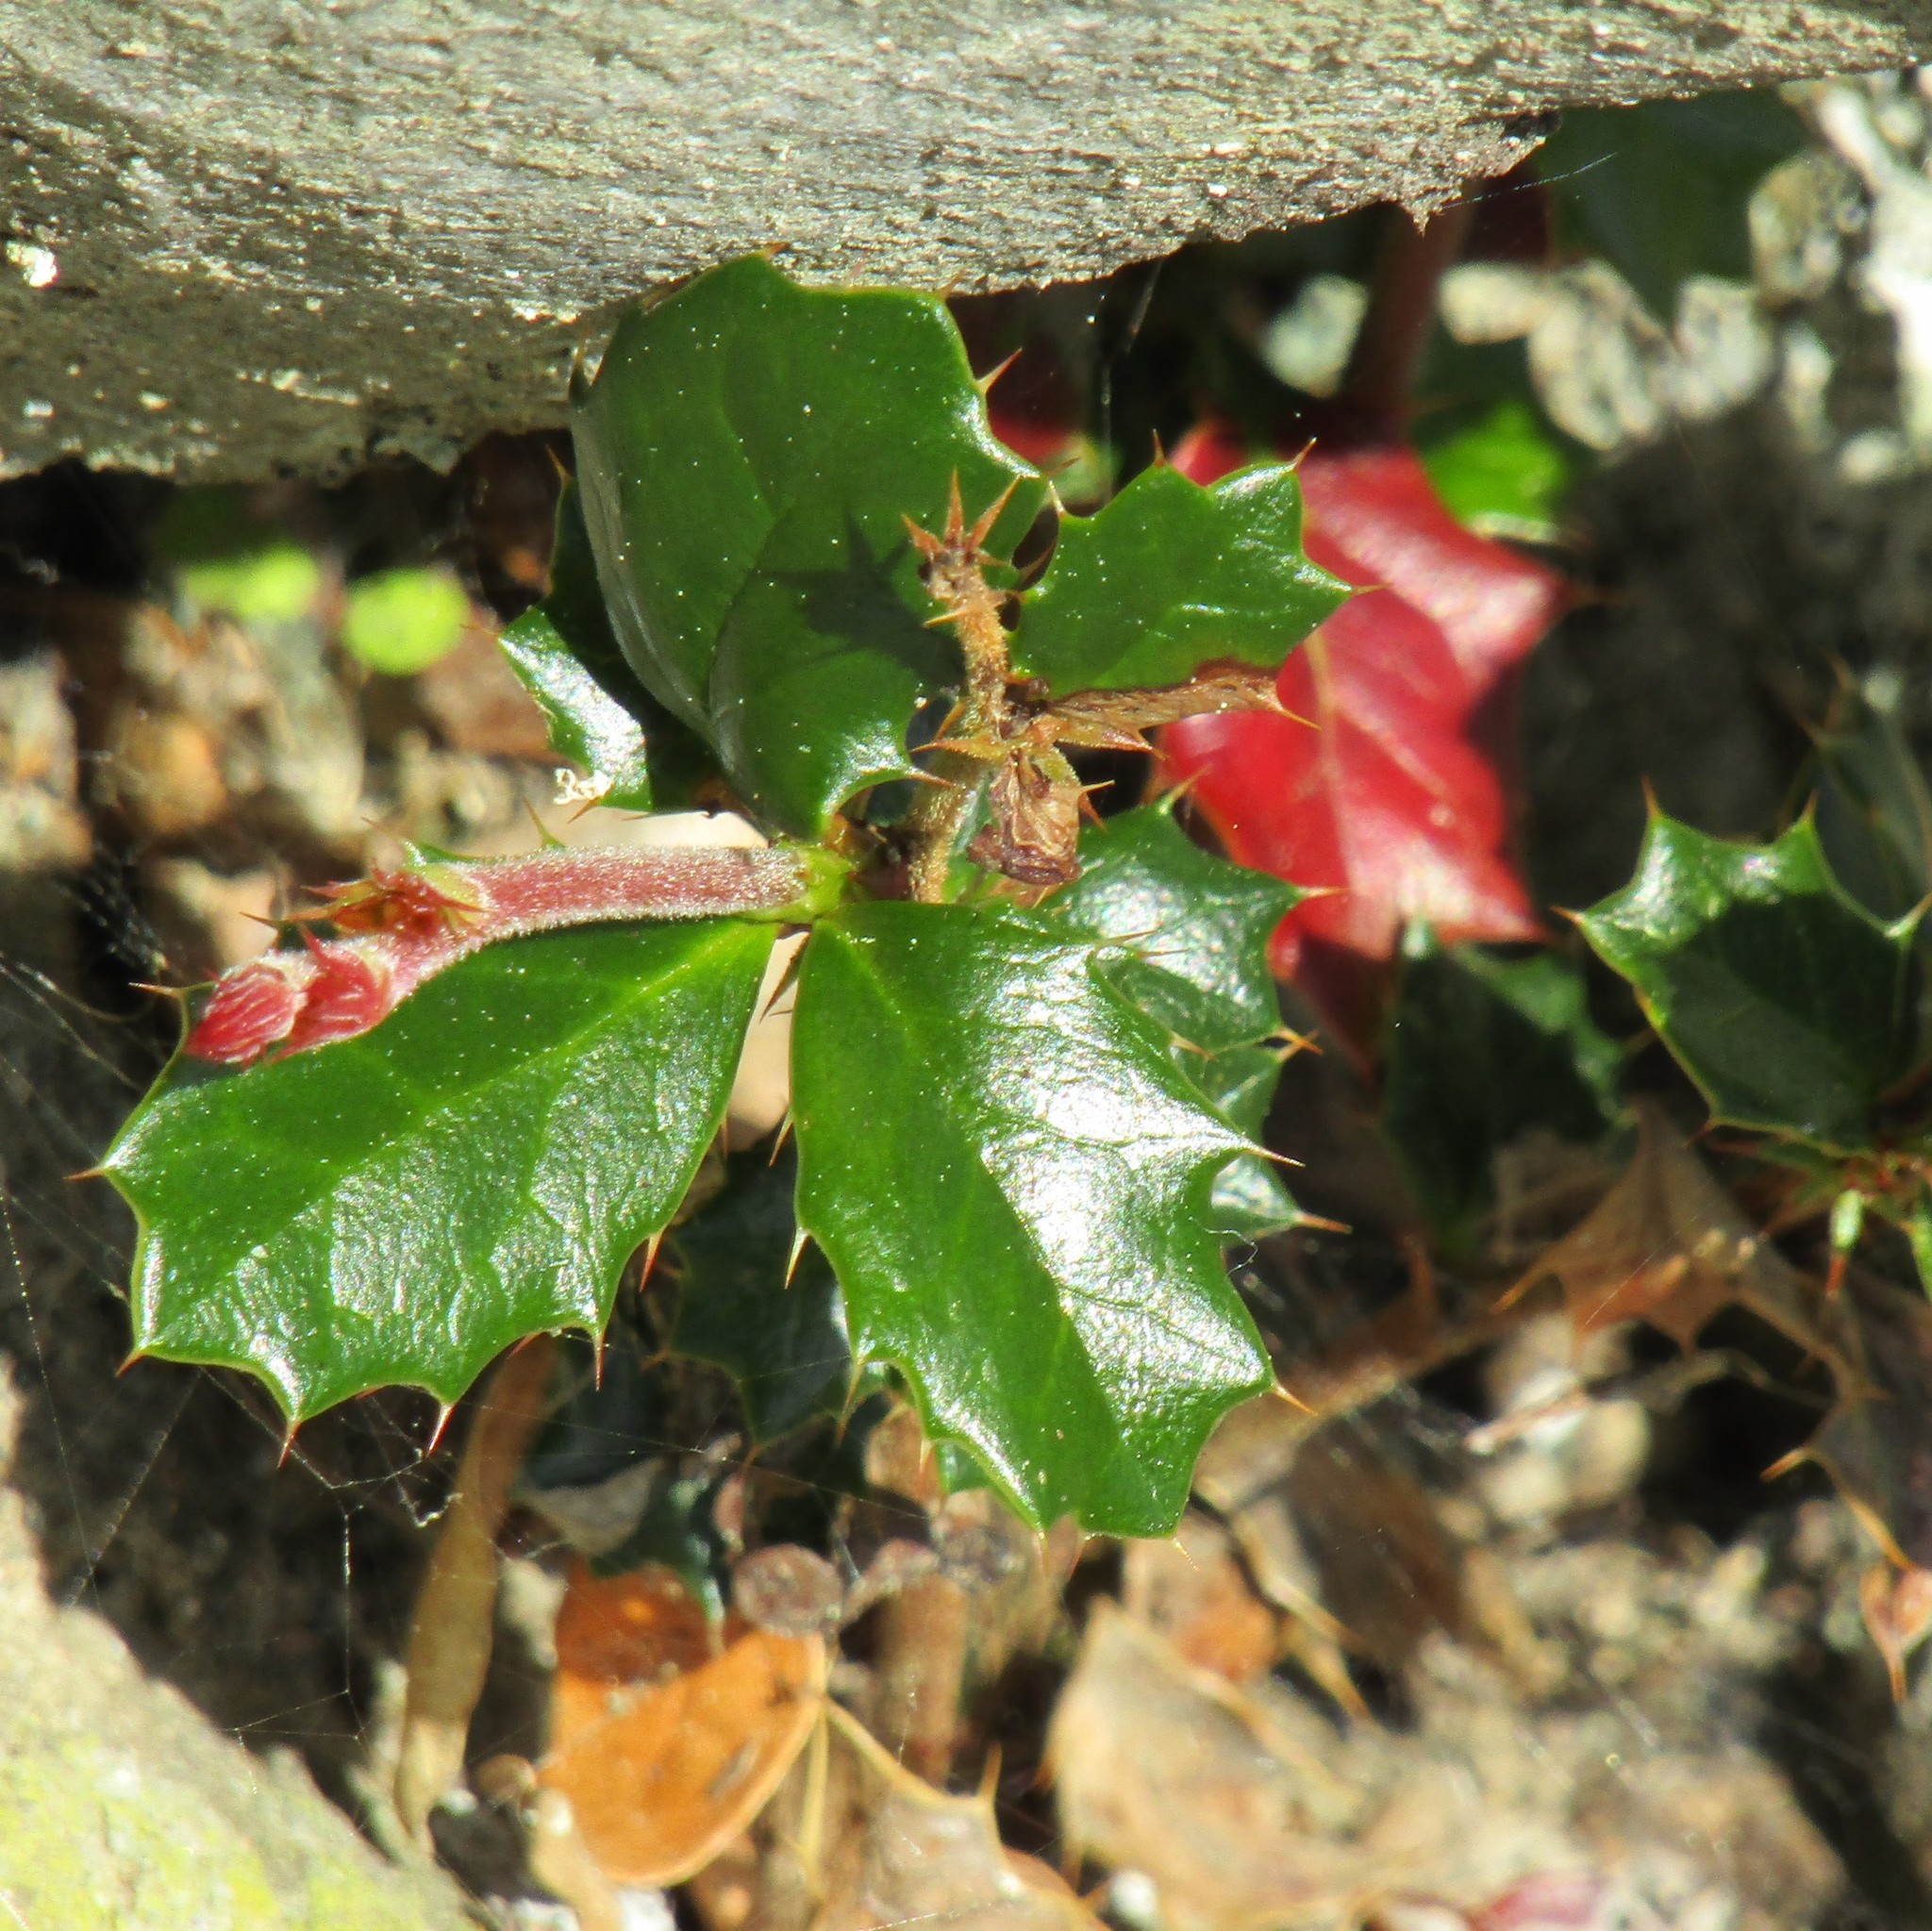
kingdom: Plantae
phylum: Tracheophyta
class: Magnoliopsida
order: Ranunculales
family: Berberidaceae
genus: Berberis
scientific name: Berberis darwinii
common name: Darwin's barberry
